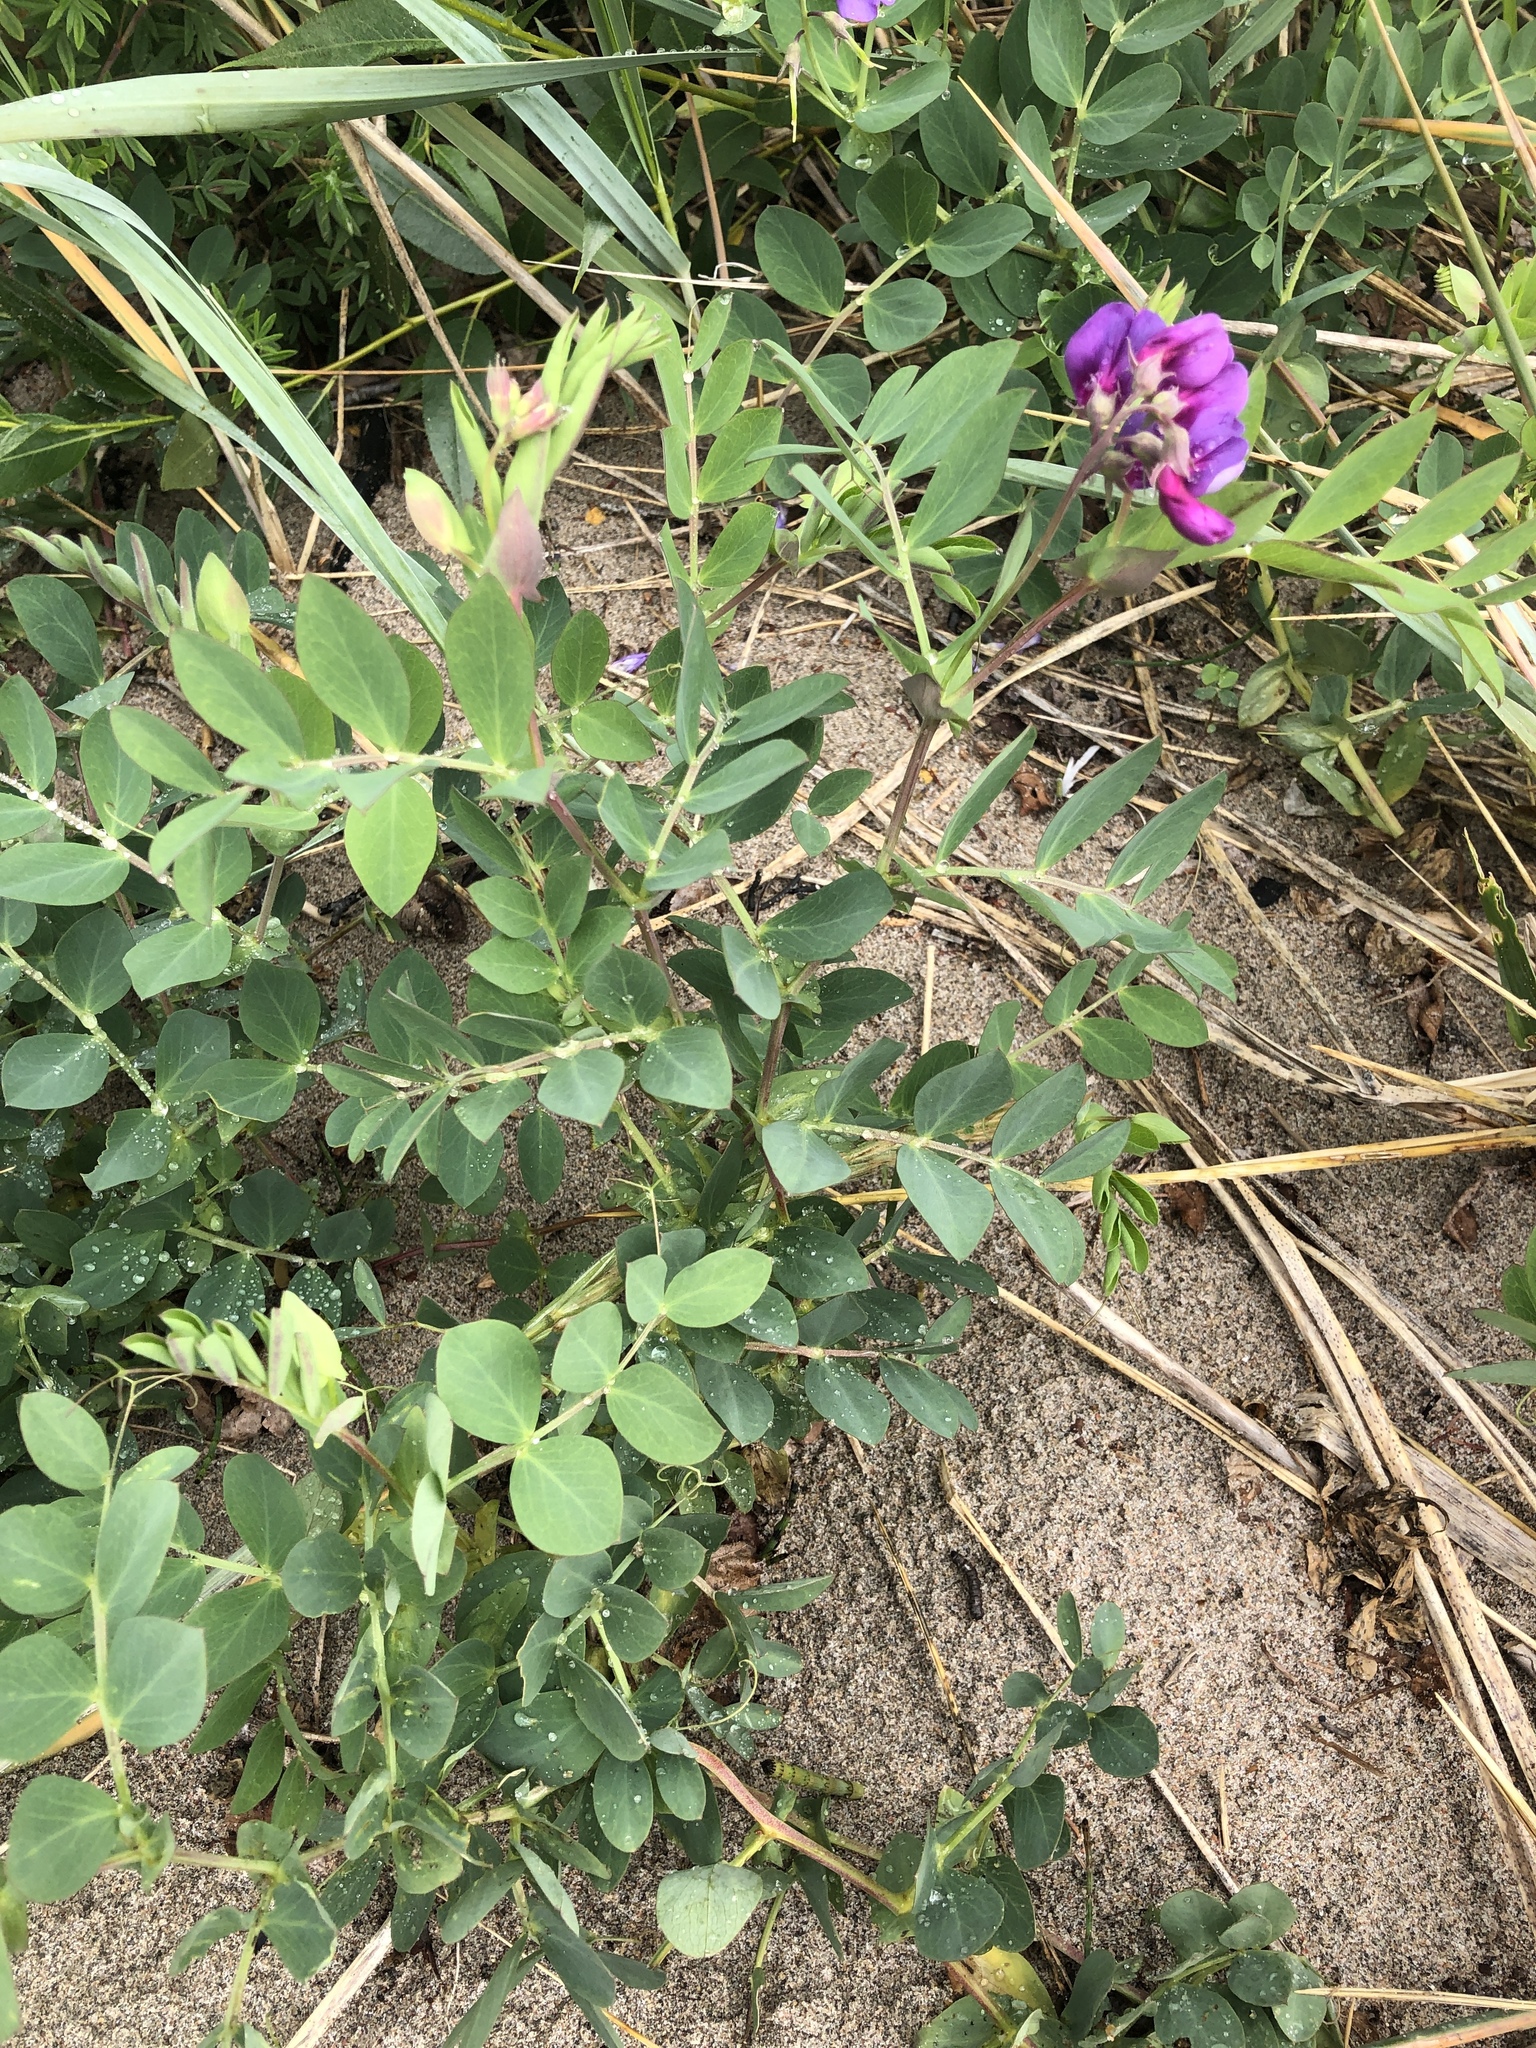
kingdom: Plantae
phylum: Tracheophyta
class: Magnoliopsida
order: Fabales
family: Fabaceae
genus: Lathyrus
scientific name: Lathyrus japonicus
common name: Sea pea
